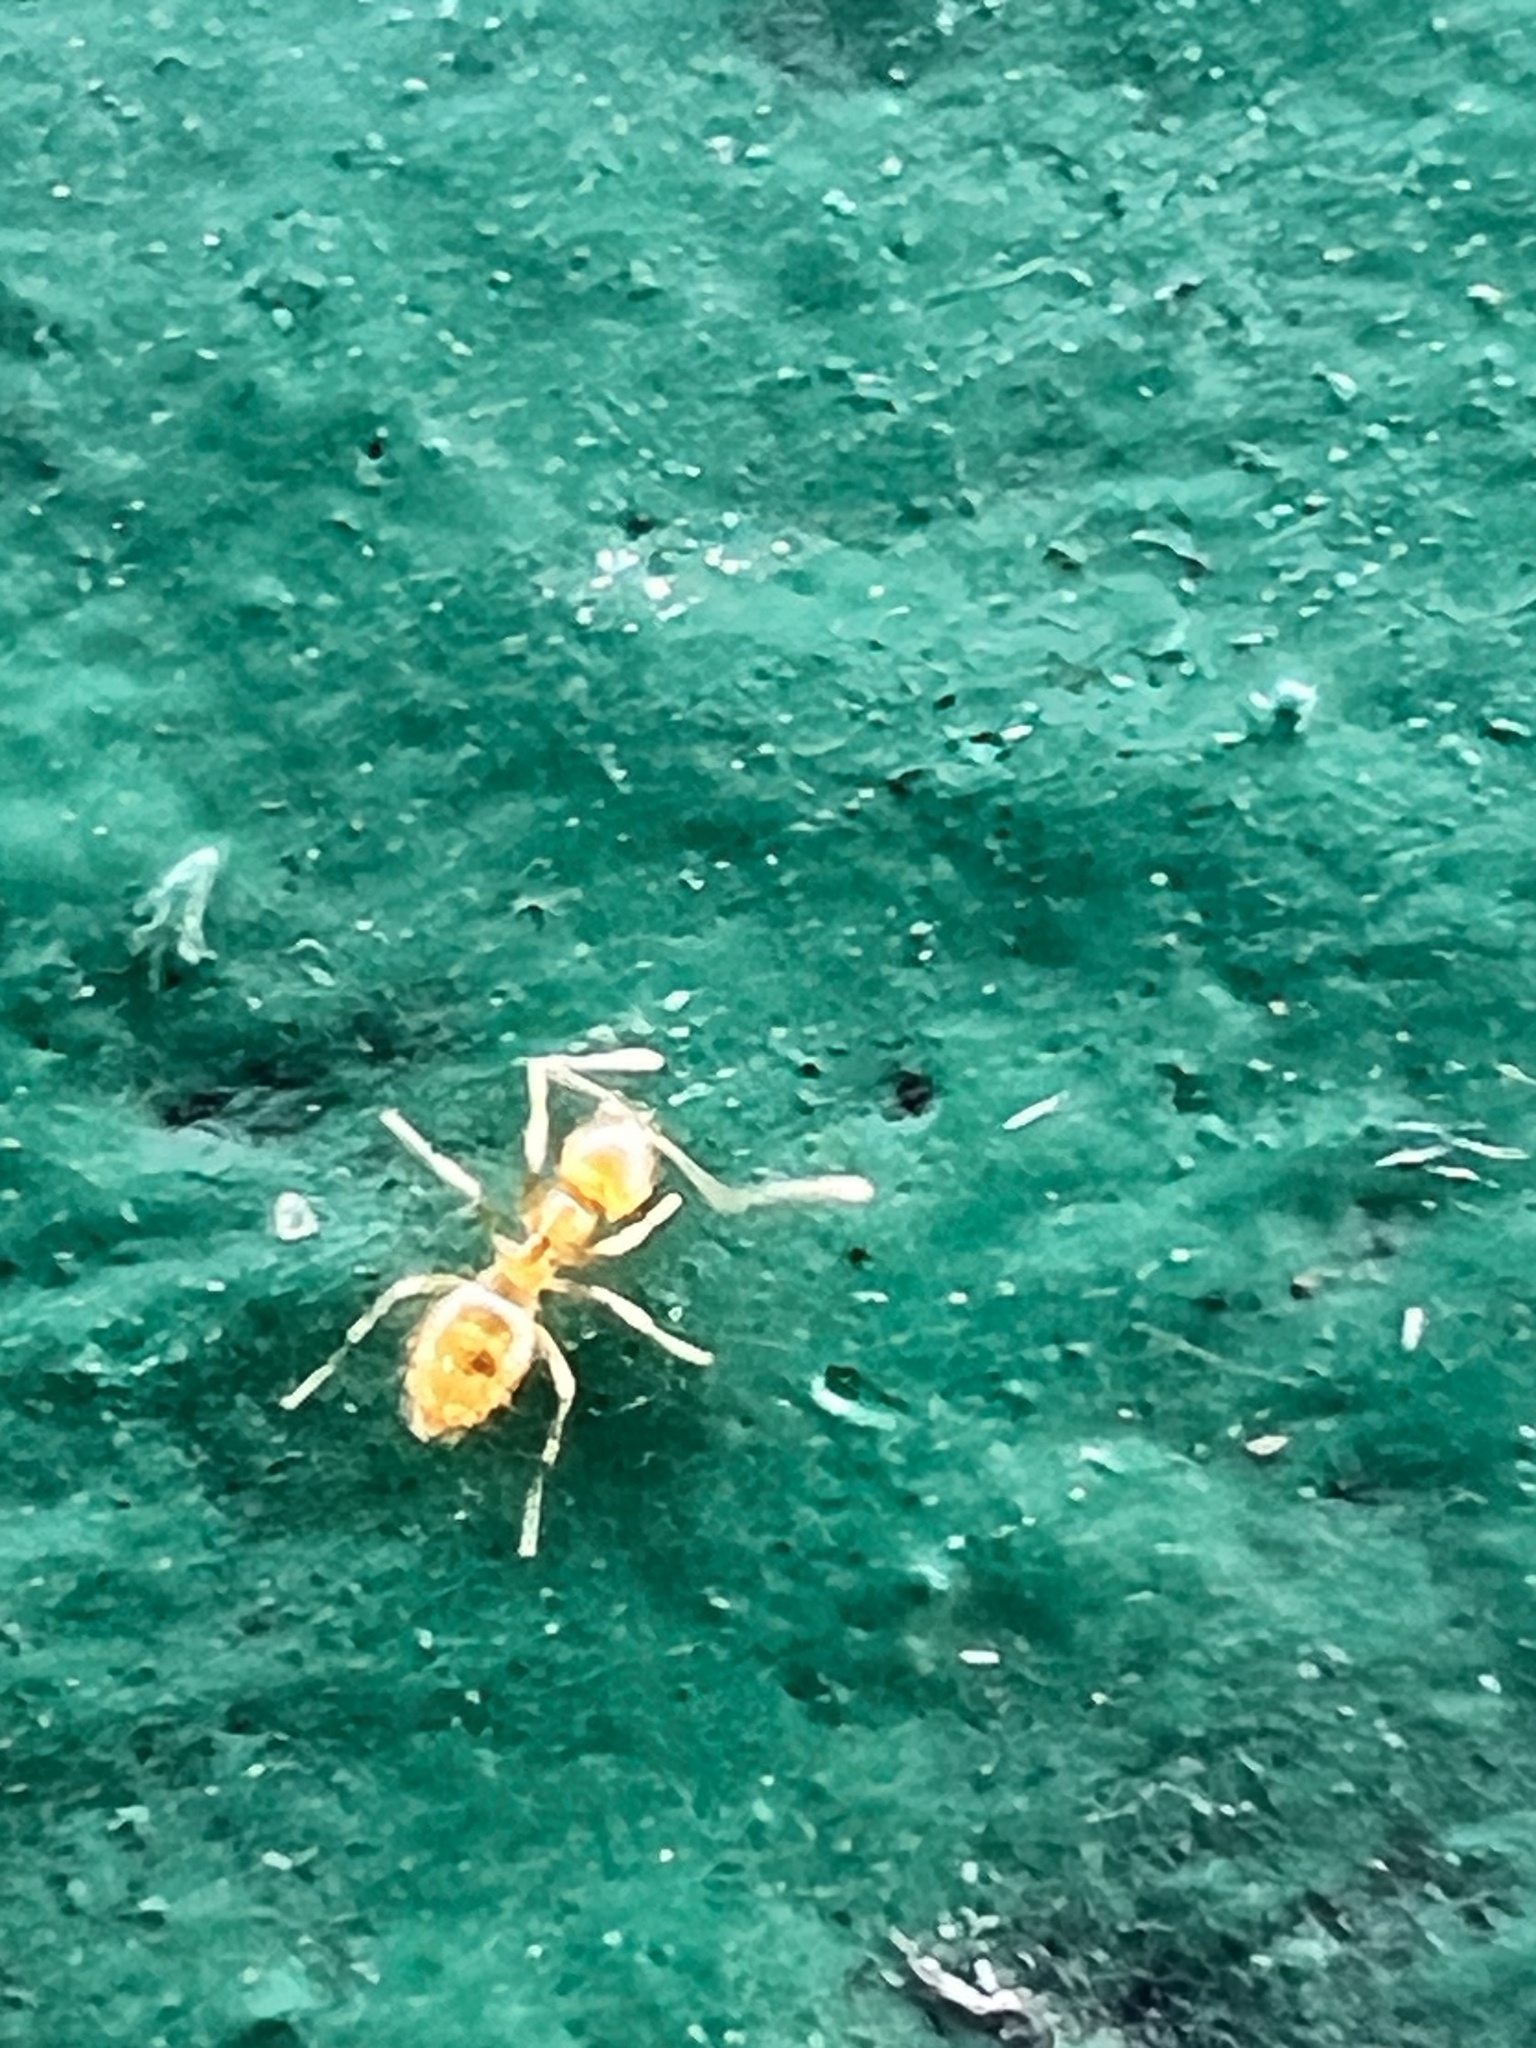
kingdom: Animalia
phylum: Arthropoda
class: Insecta
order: Hymenoptera
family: Formicidae
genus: Plagiolepis
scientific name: Plagiolepis alluaudi
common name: Little yellow ant
